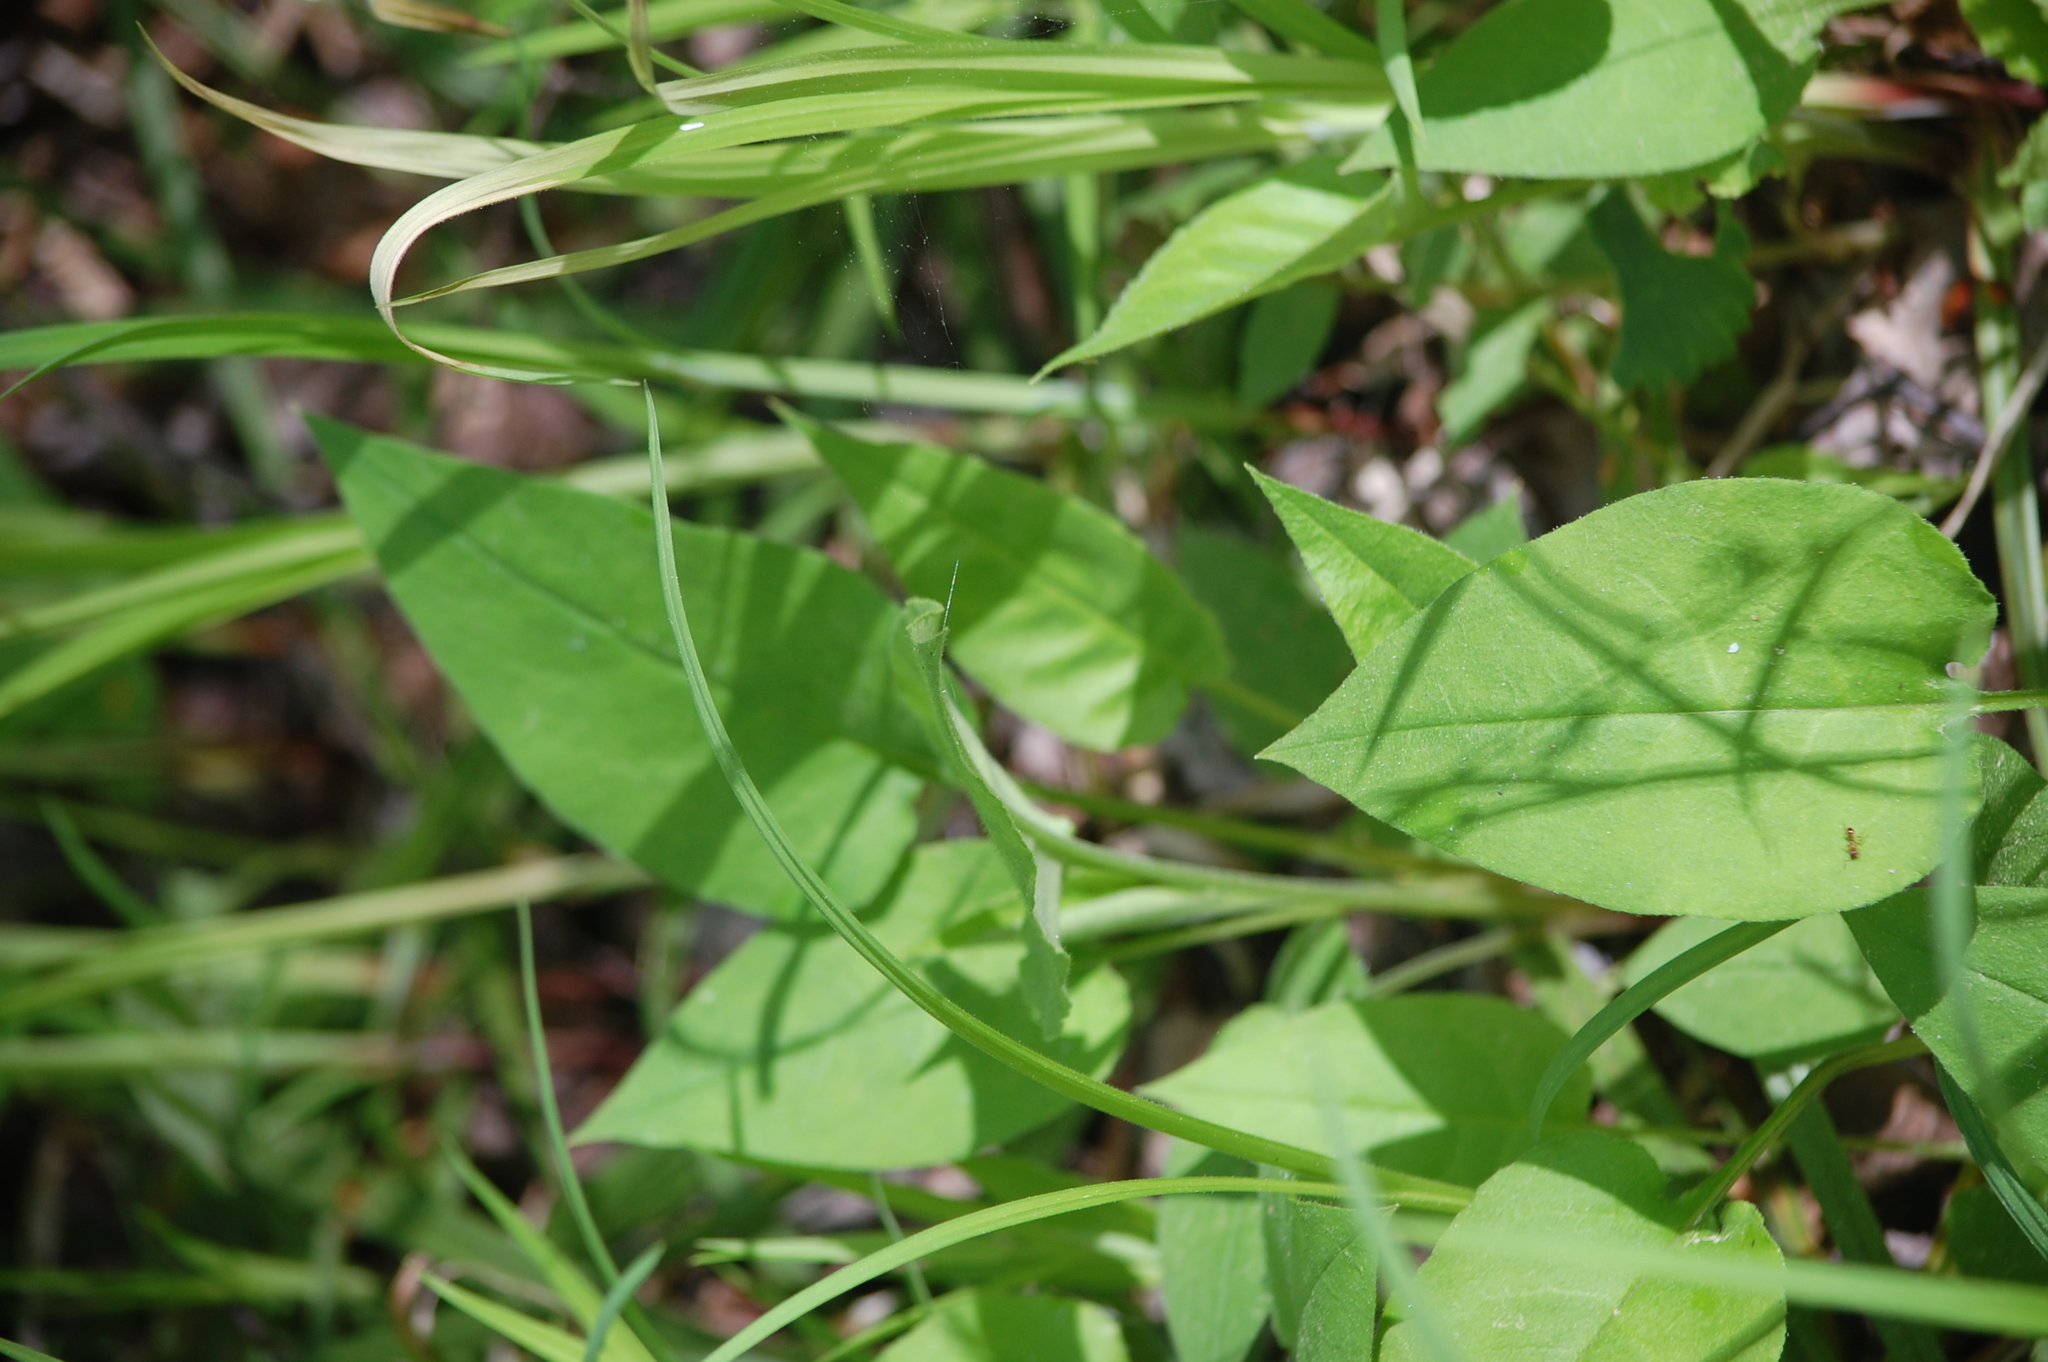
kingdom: Plantae
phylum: Tracheophyta
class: Magnoliopsida
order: Boraginales
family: Boraginaceae
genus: Pulmonaria
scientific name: Pulmonaria obscura
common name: Suffolk lungwort
